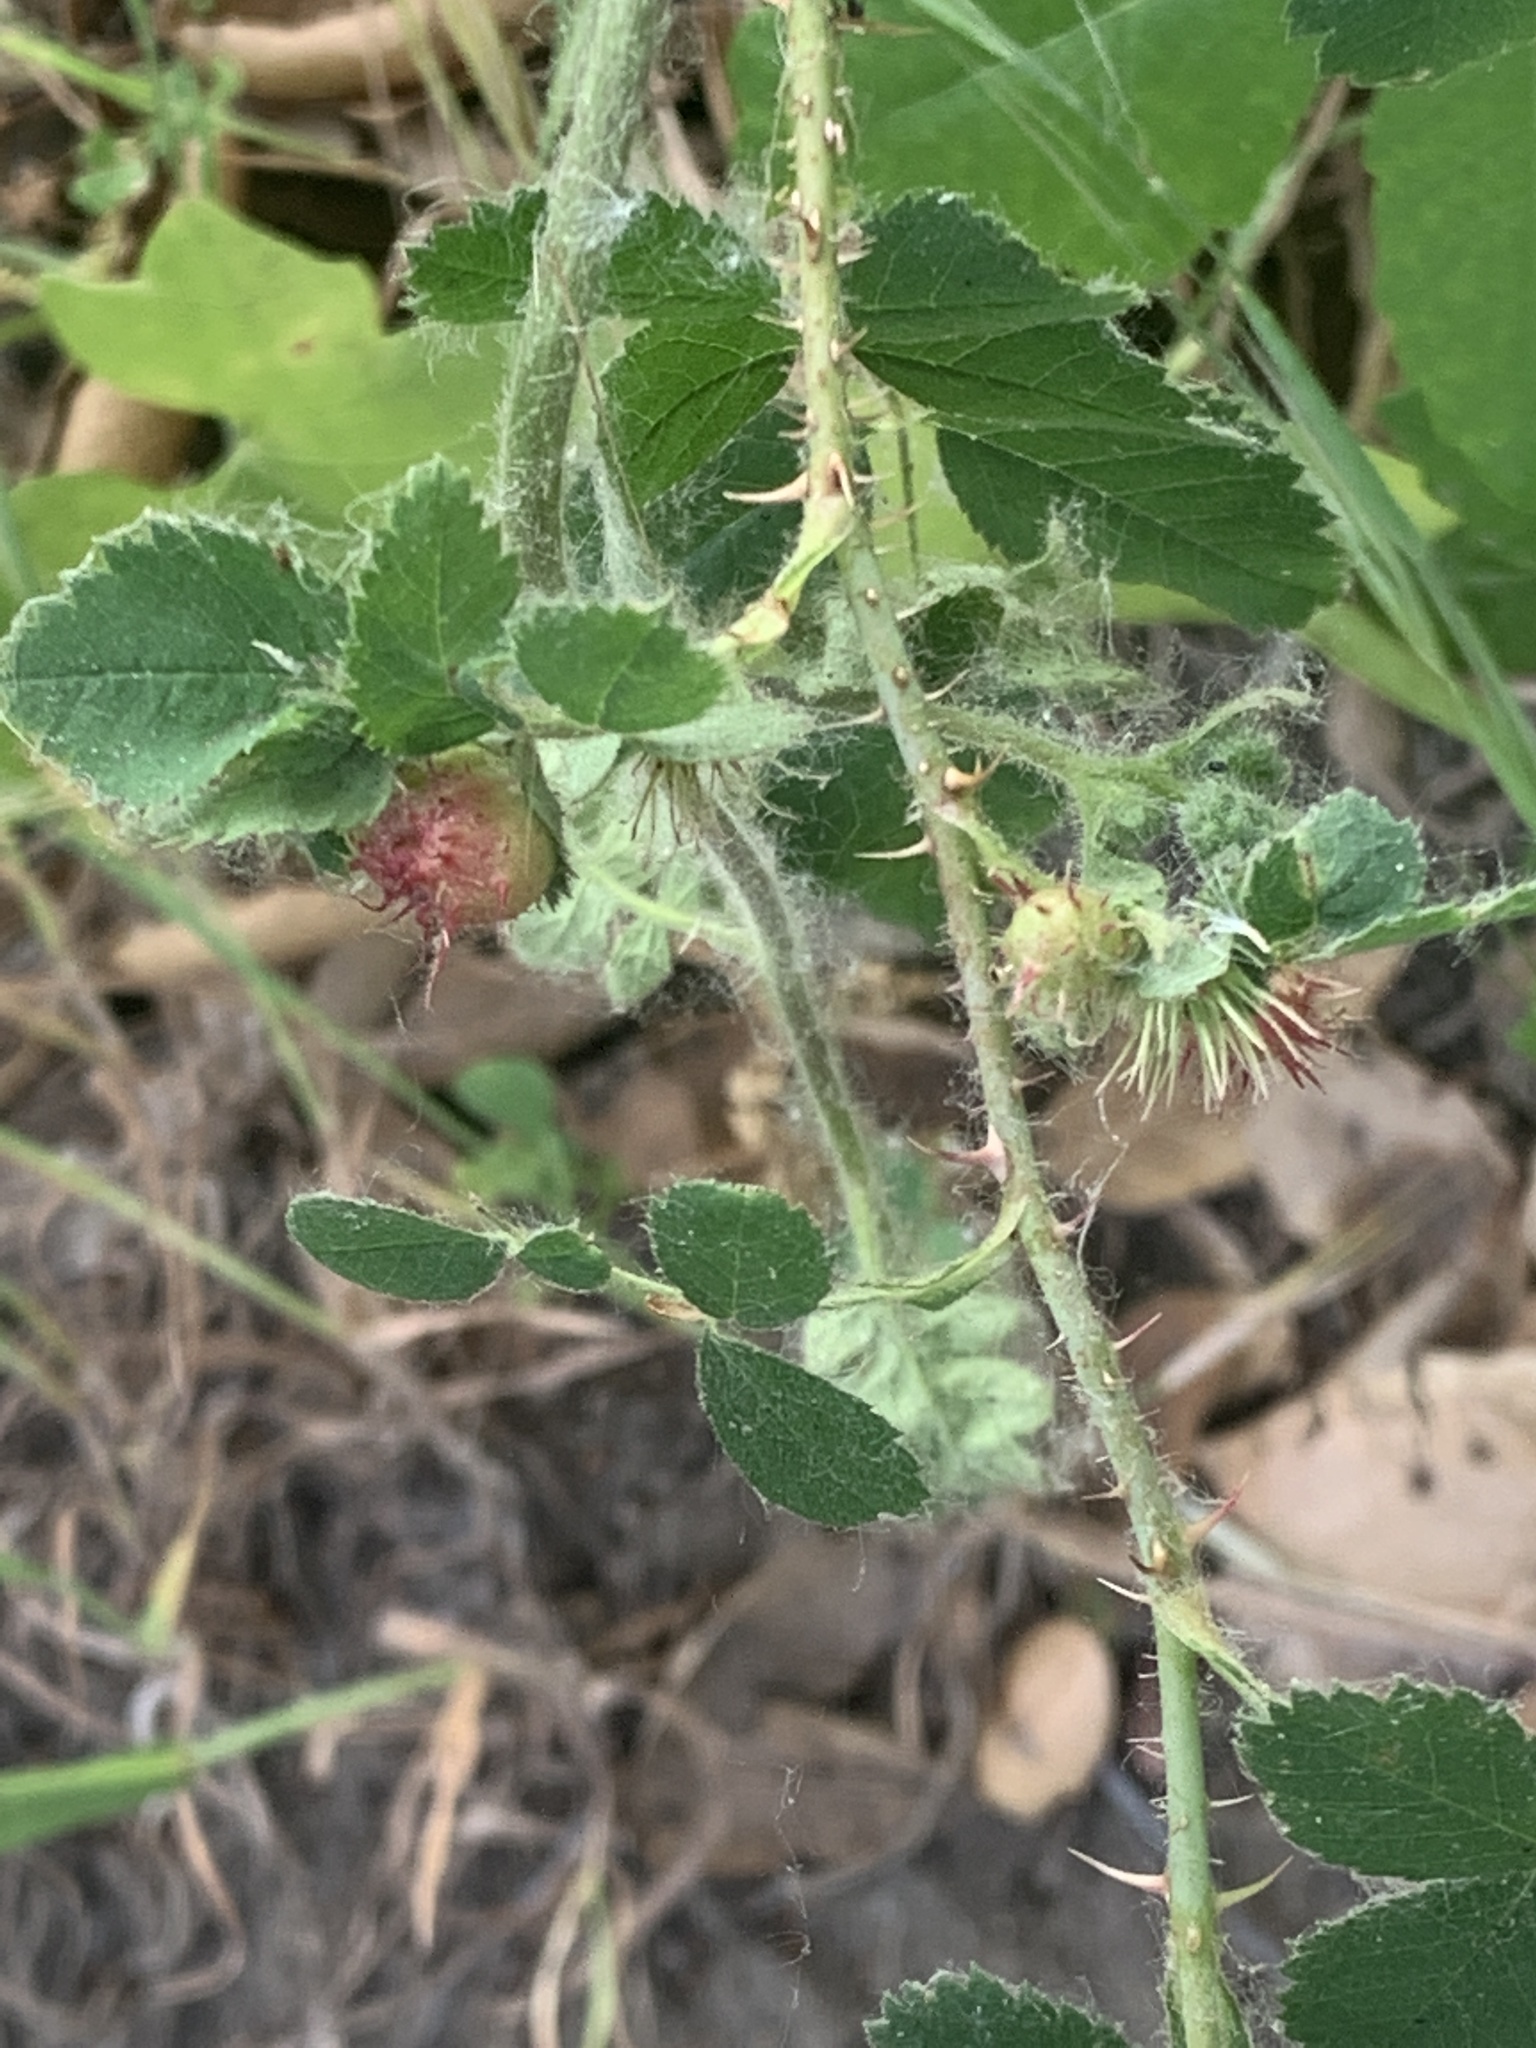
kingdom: Animalia
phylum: Arthropoda
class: Insecta
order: Hymenoptera
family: Cynipidae
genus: Diplolepis
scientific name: Diplolepis polita
